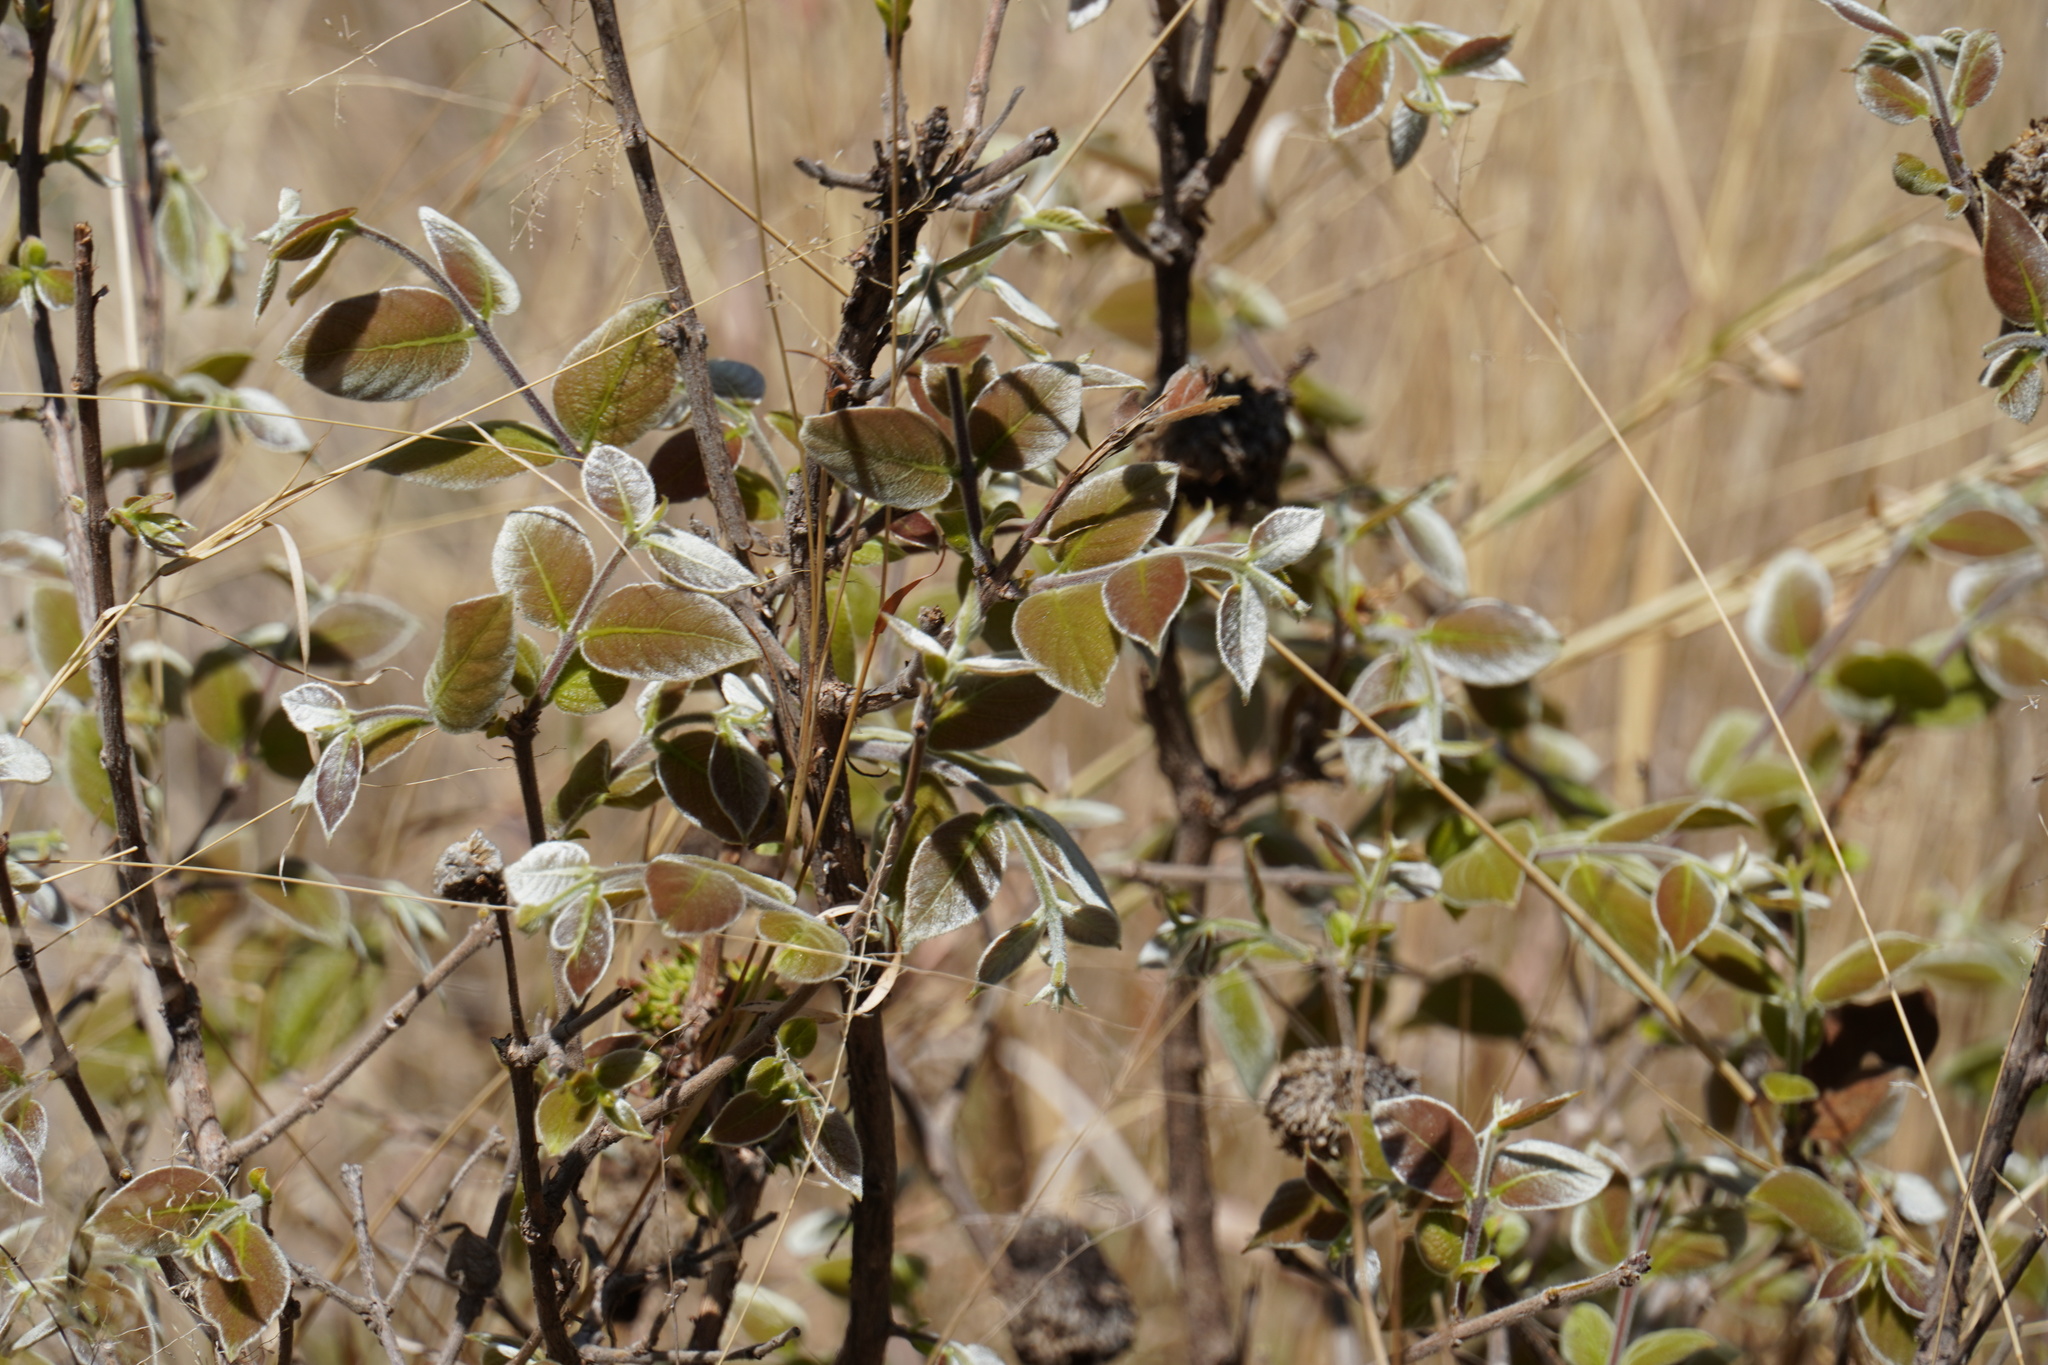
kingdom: Plantae
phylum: Tracheophyta
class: Magnoliopsida
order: Myrtales
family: Combretaceae
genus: Combretum
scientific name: Combretum molle
